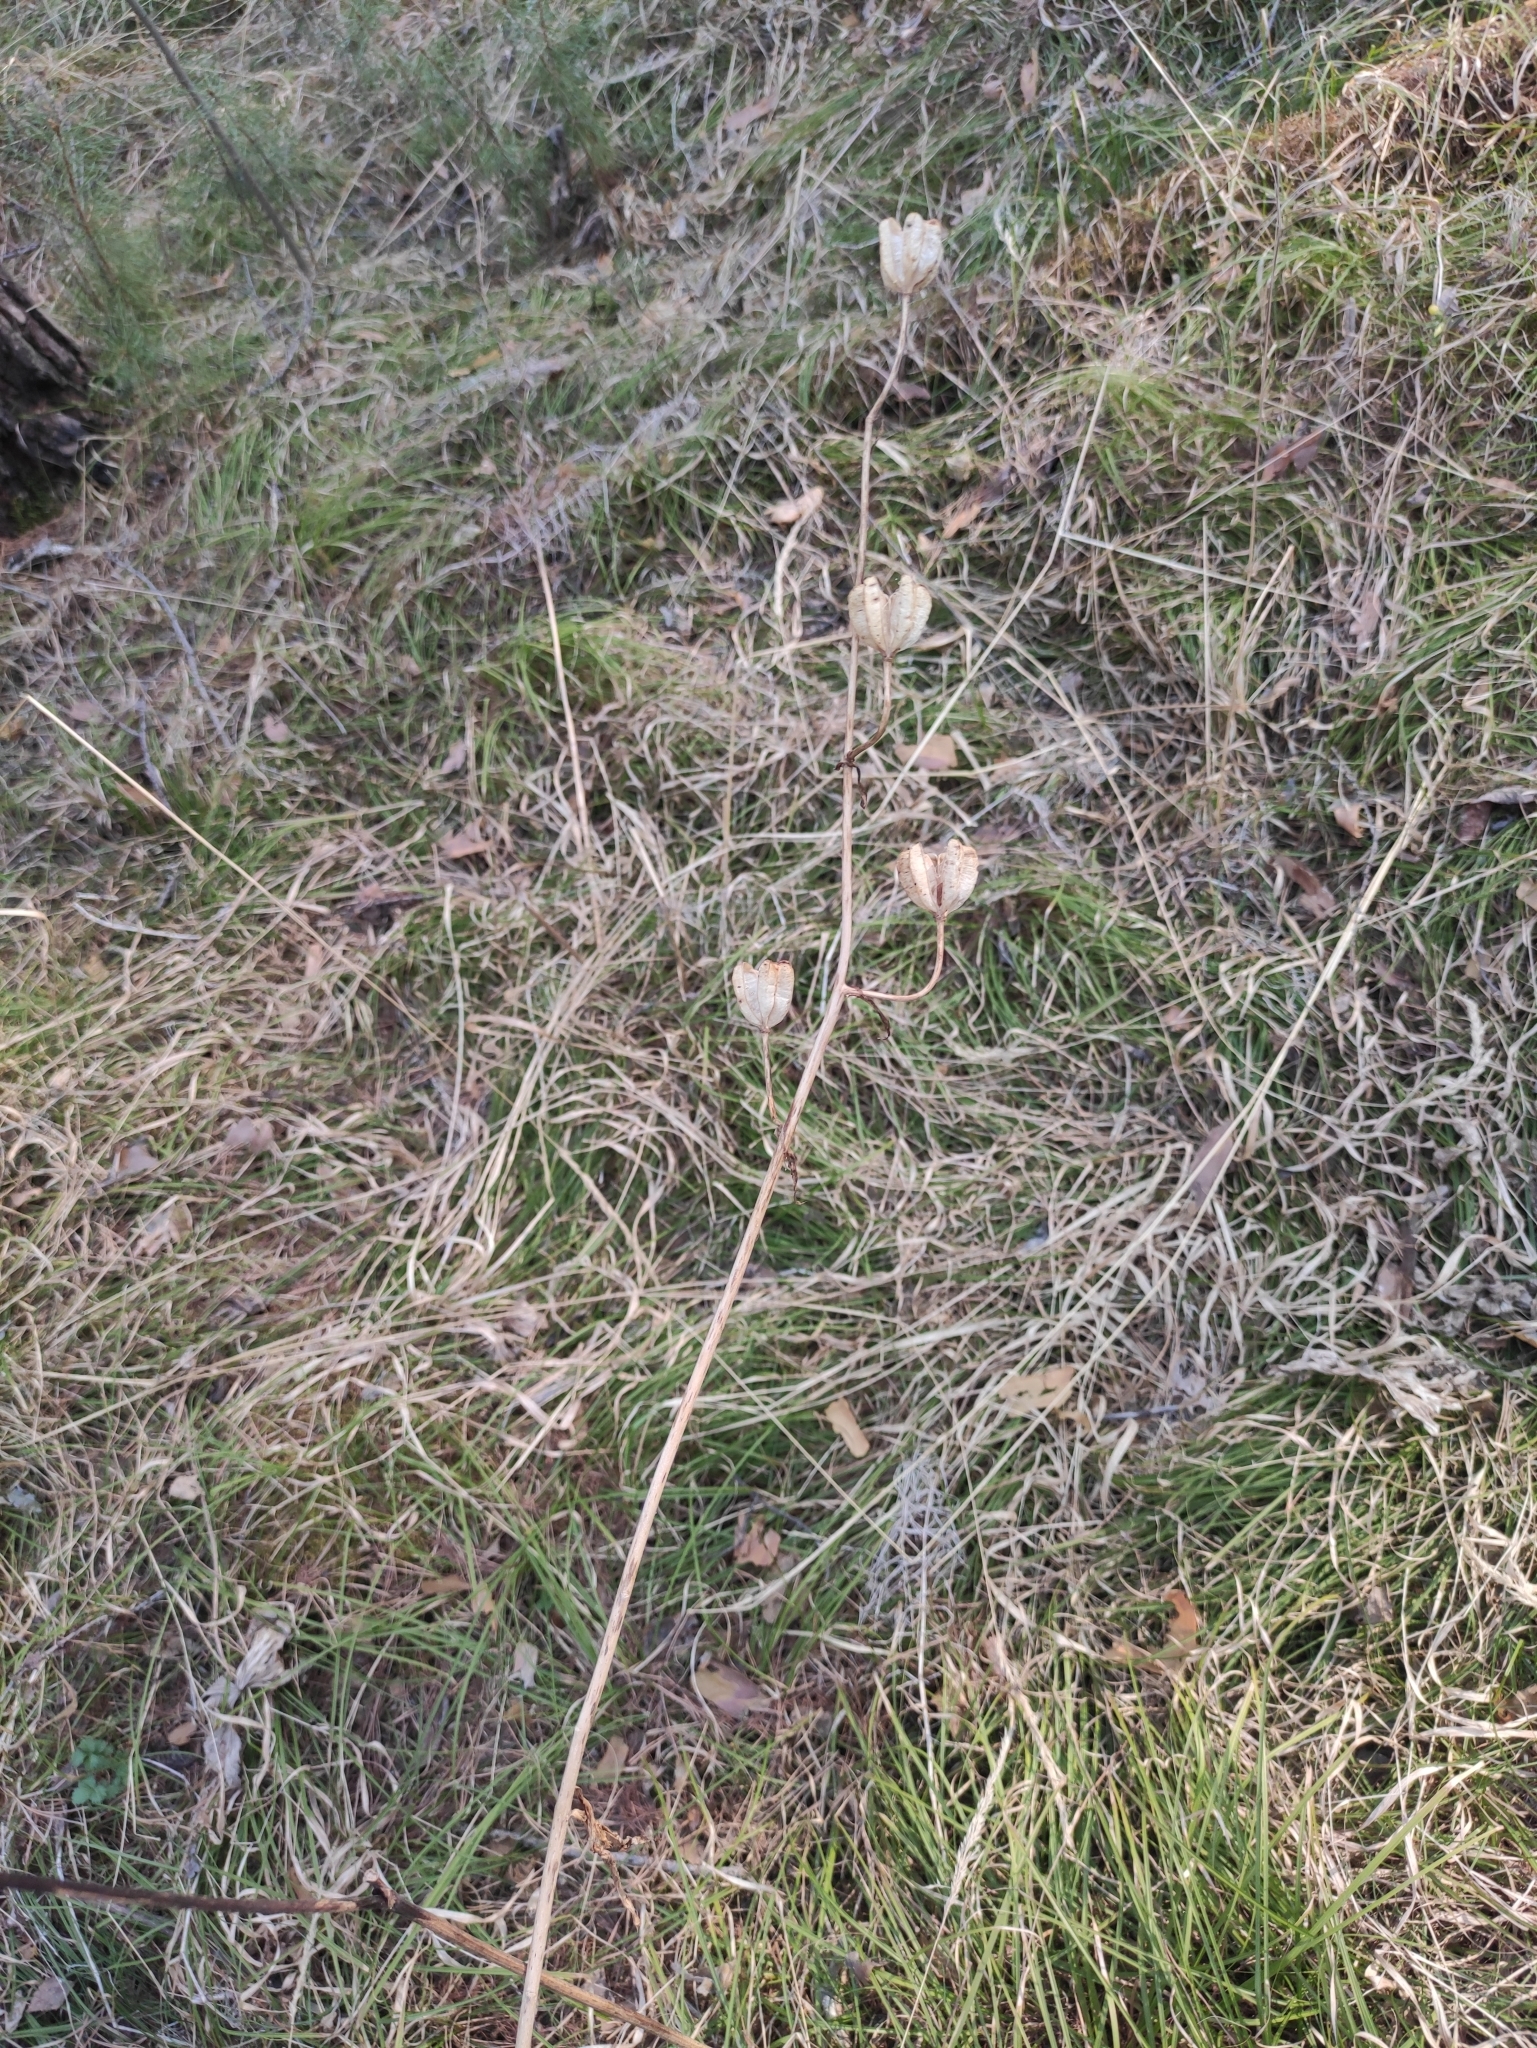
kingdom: Plantae
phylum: Tracheophyta
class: Liliopsida
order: Liliales
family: Liliaceae
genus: Lilium
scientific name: Lilium martagon
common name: Martagon lily
